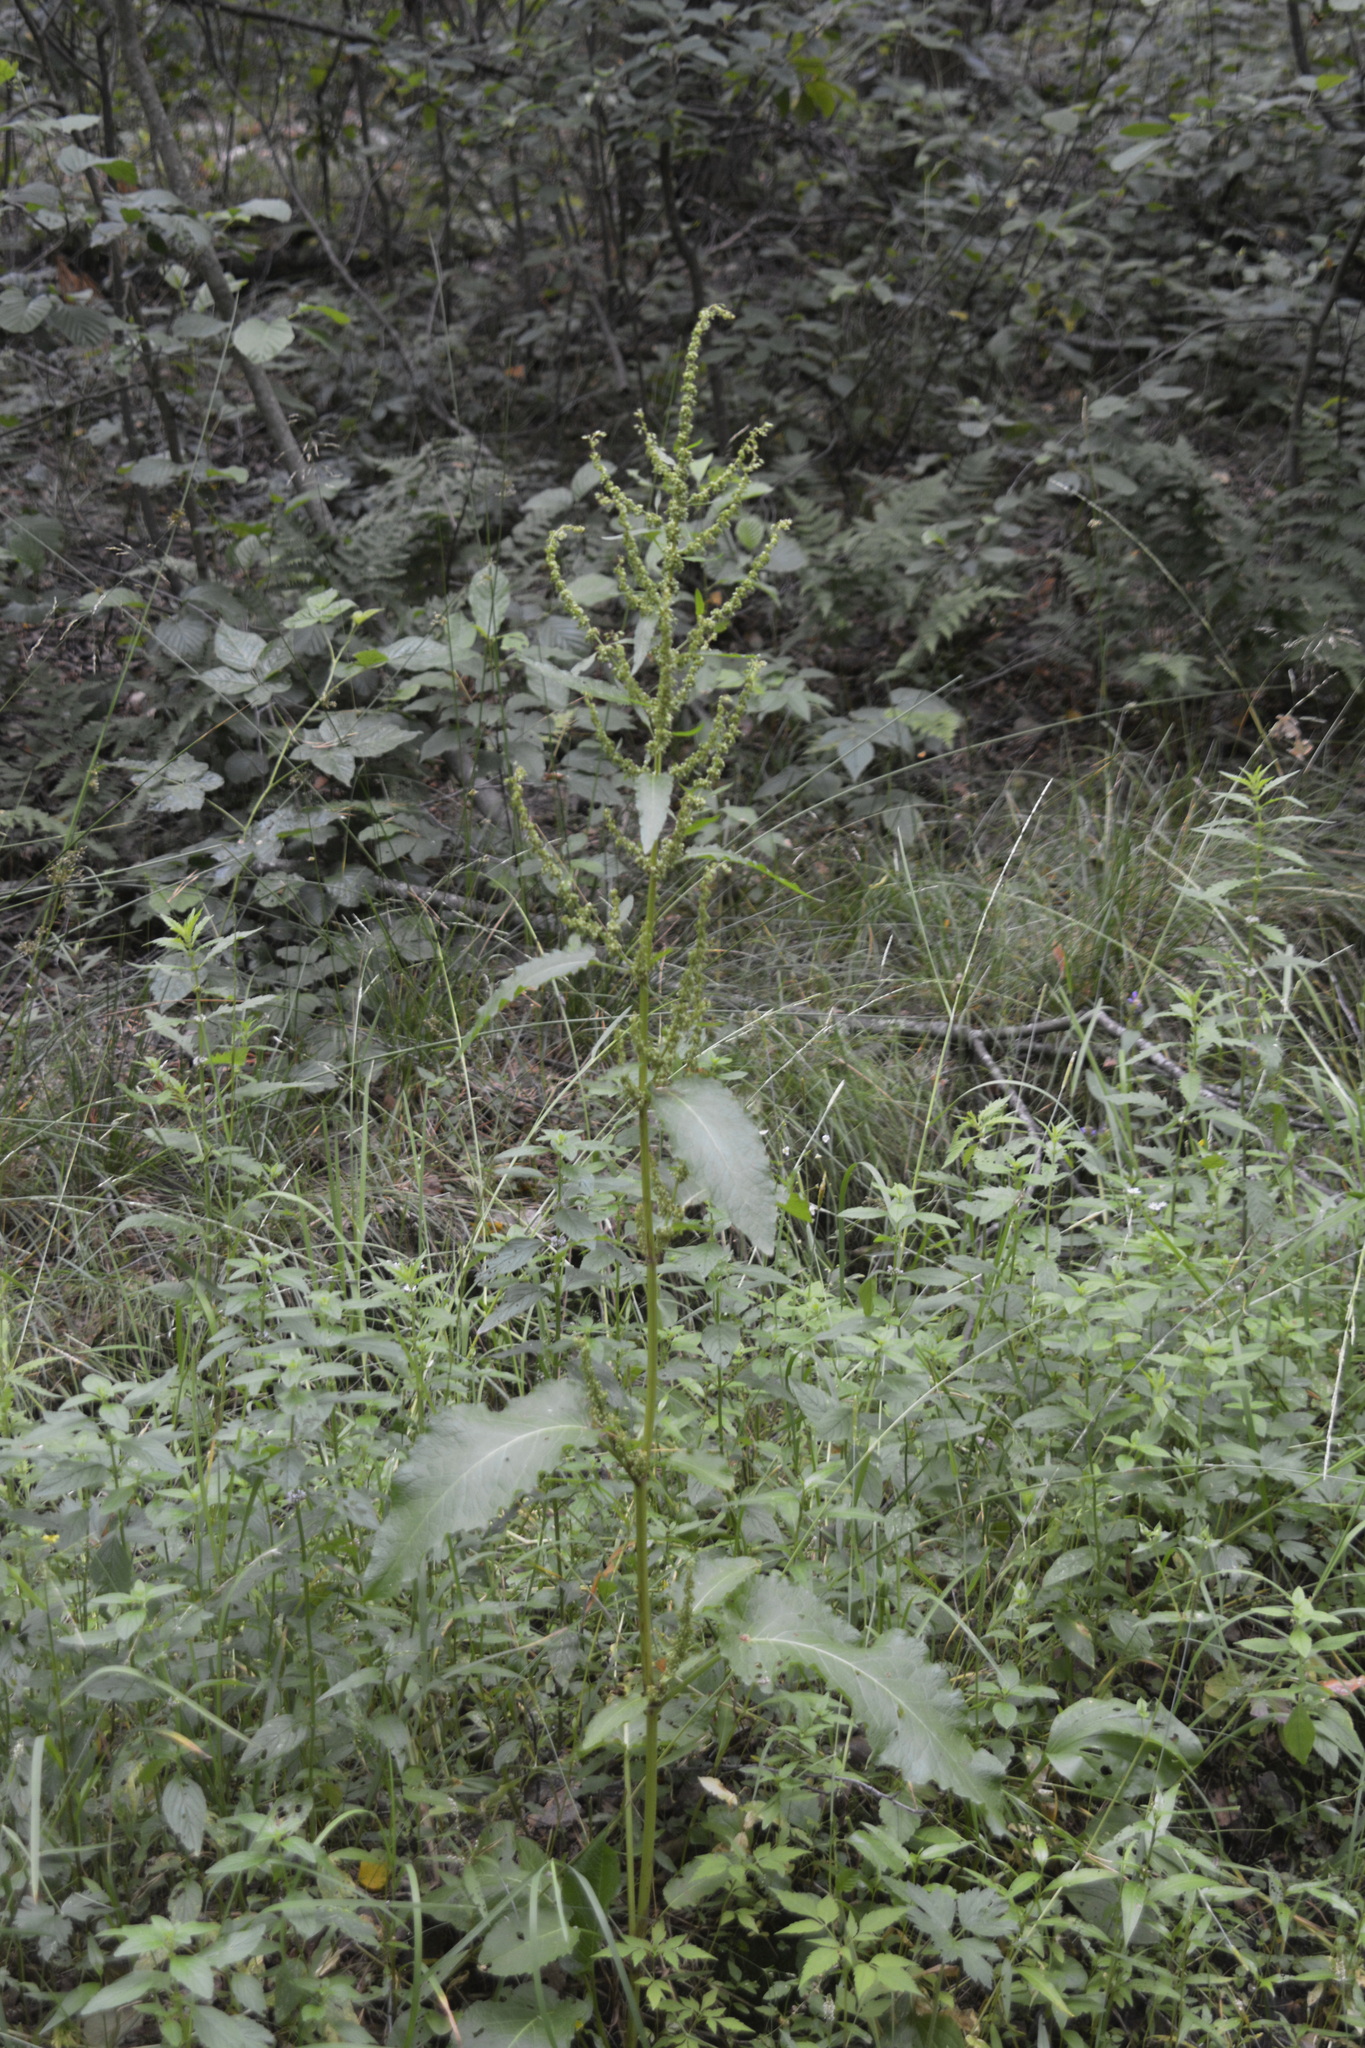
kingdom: Plantae
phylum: Tracheophyta
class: Magnoliopsida
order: Caryophyllales
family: Polygonaceae
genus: Rumex
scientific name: Rumex obtusifolius
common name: Bitter dock
